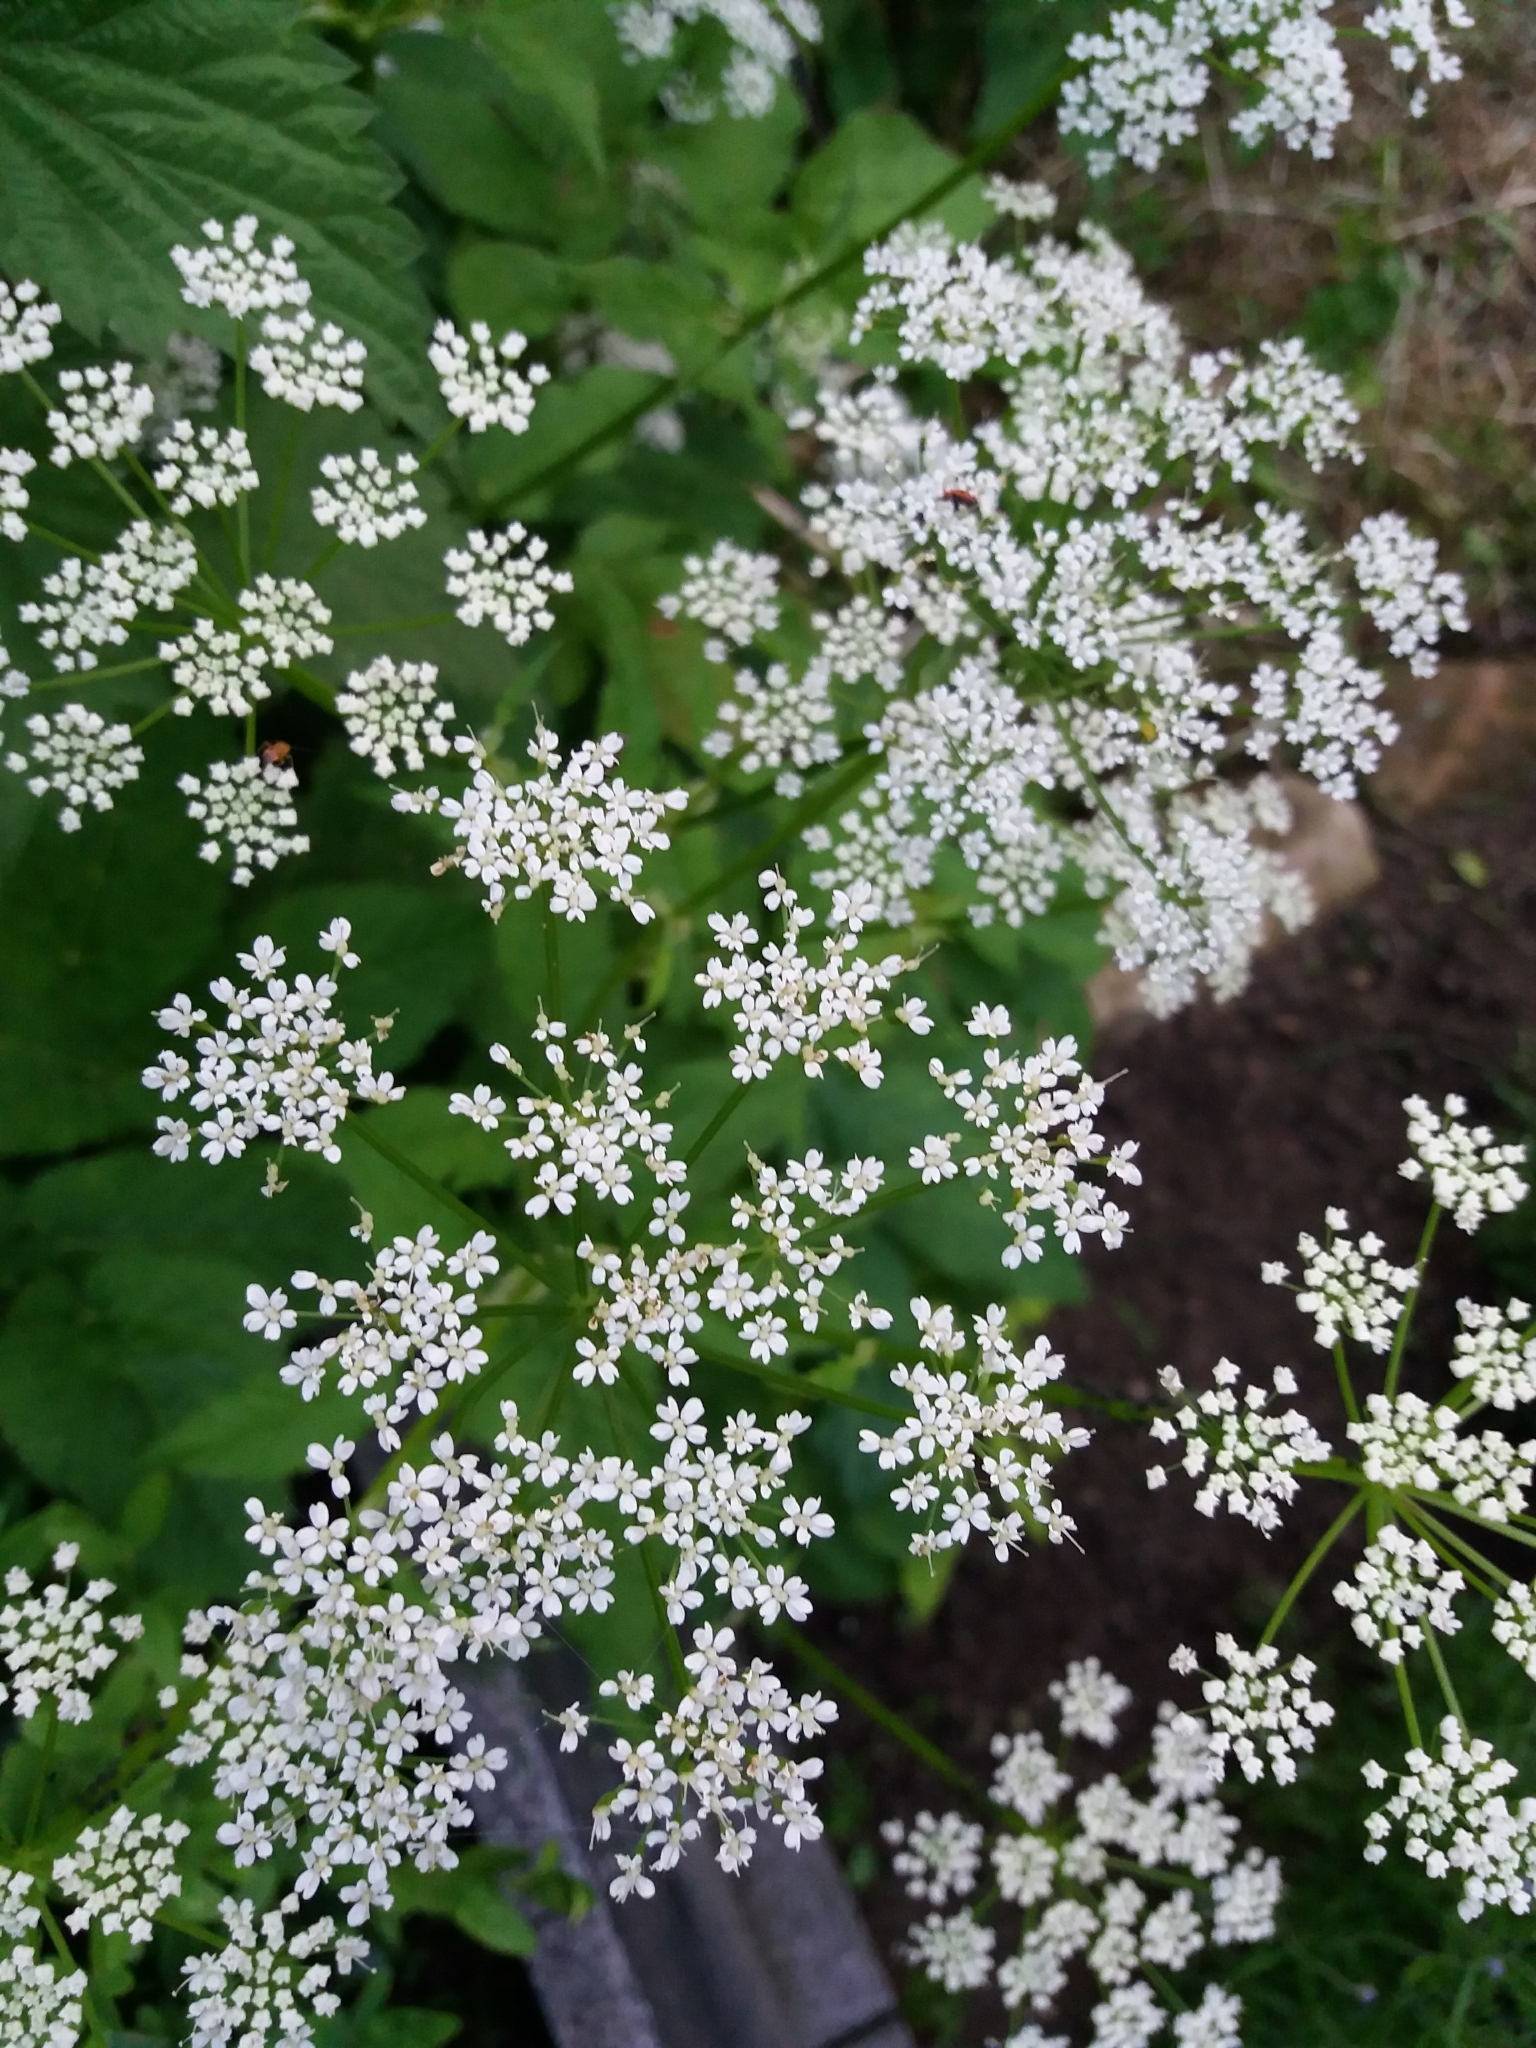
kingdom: Plantae
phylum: Tracheophyta
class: Magnoliopsida
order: Apiales
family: Apiaceae
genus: Aegopodium
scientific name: Aegopodium podagraria
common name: Ground-elder
